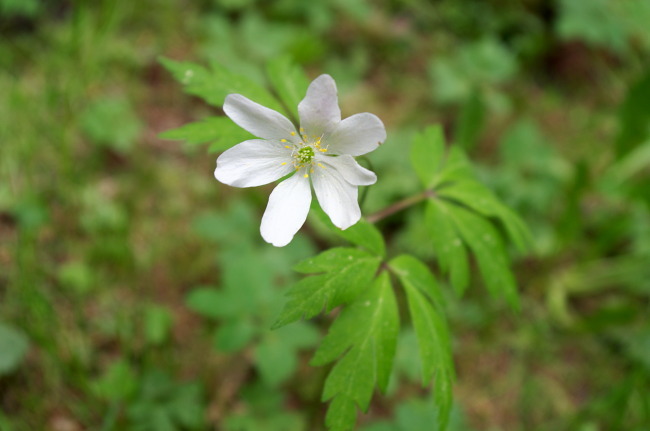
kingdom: Plantae
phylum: Tracheophyta
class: Magnoliopsida
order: Ranunculales
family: Ranunculaceae
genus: Anemone
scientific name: Anemone nemorosa
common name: Wood anemone
